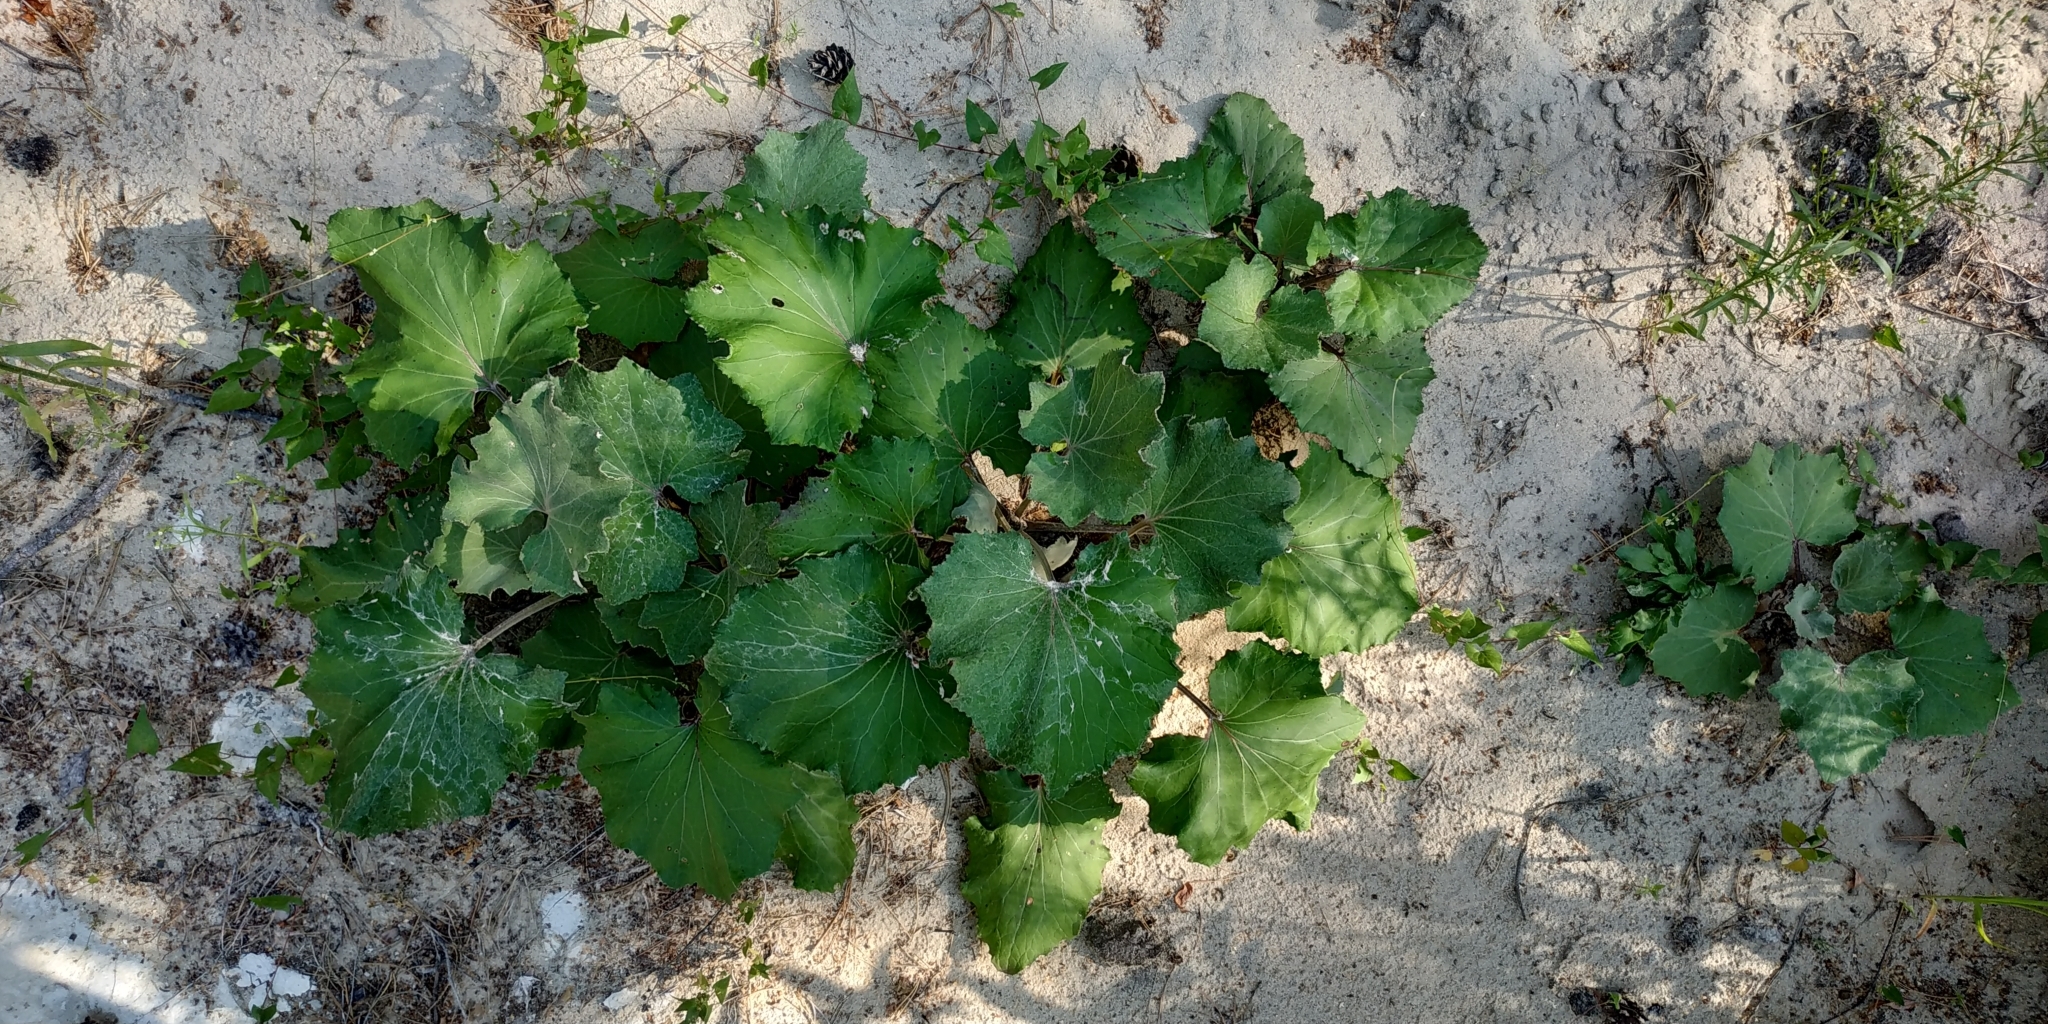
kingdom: Plantae
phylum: Tracheophyta
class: Magnoliopsida
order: Asterales
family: Asteraceae
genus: Tussilago
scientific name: Tussilago farfara
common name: Coltsfoot
